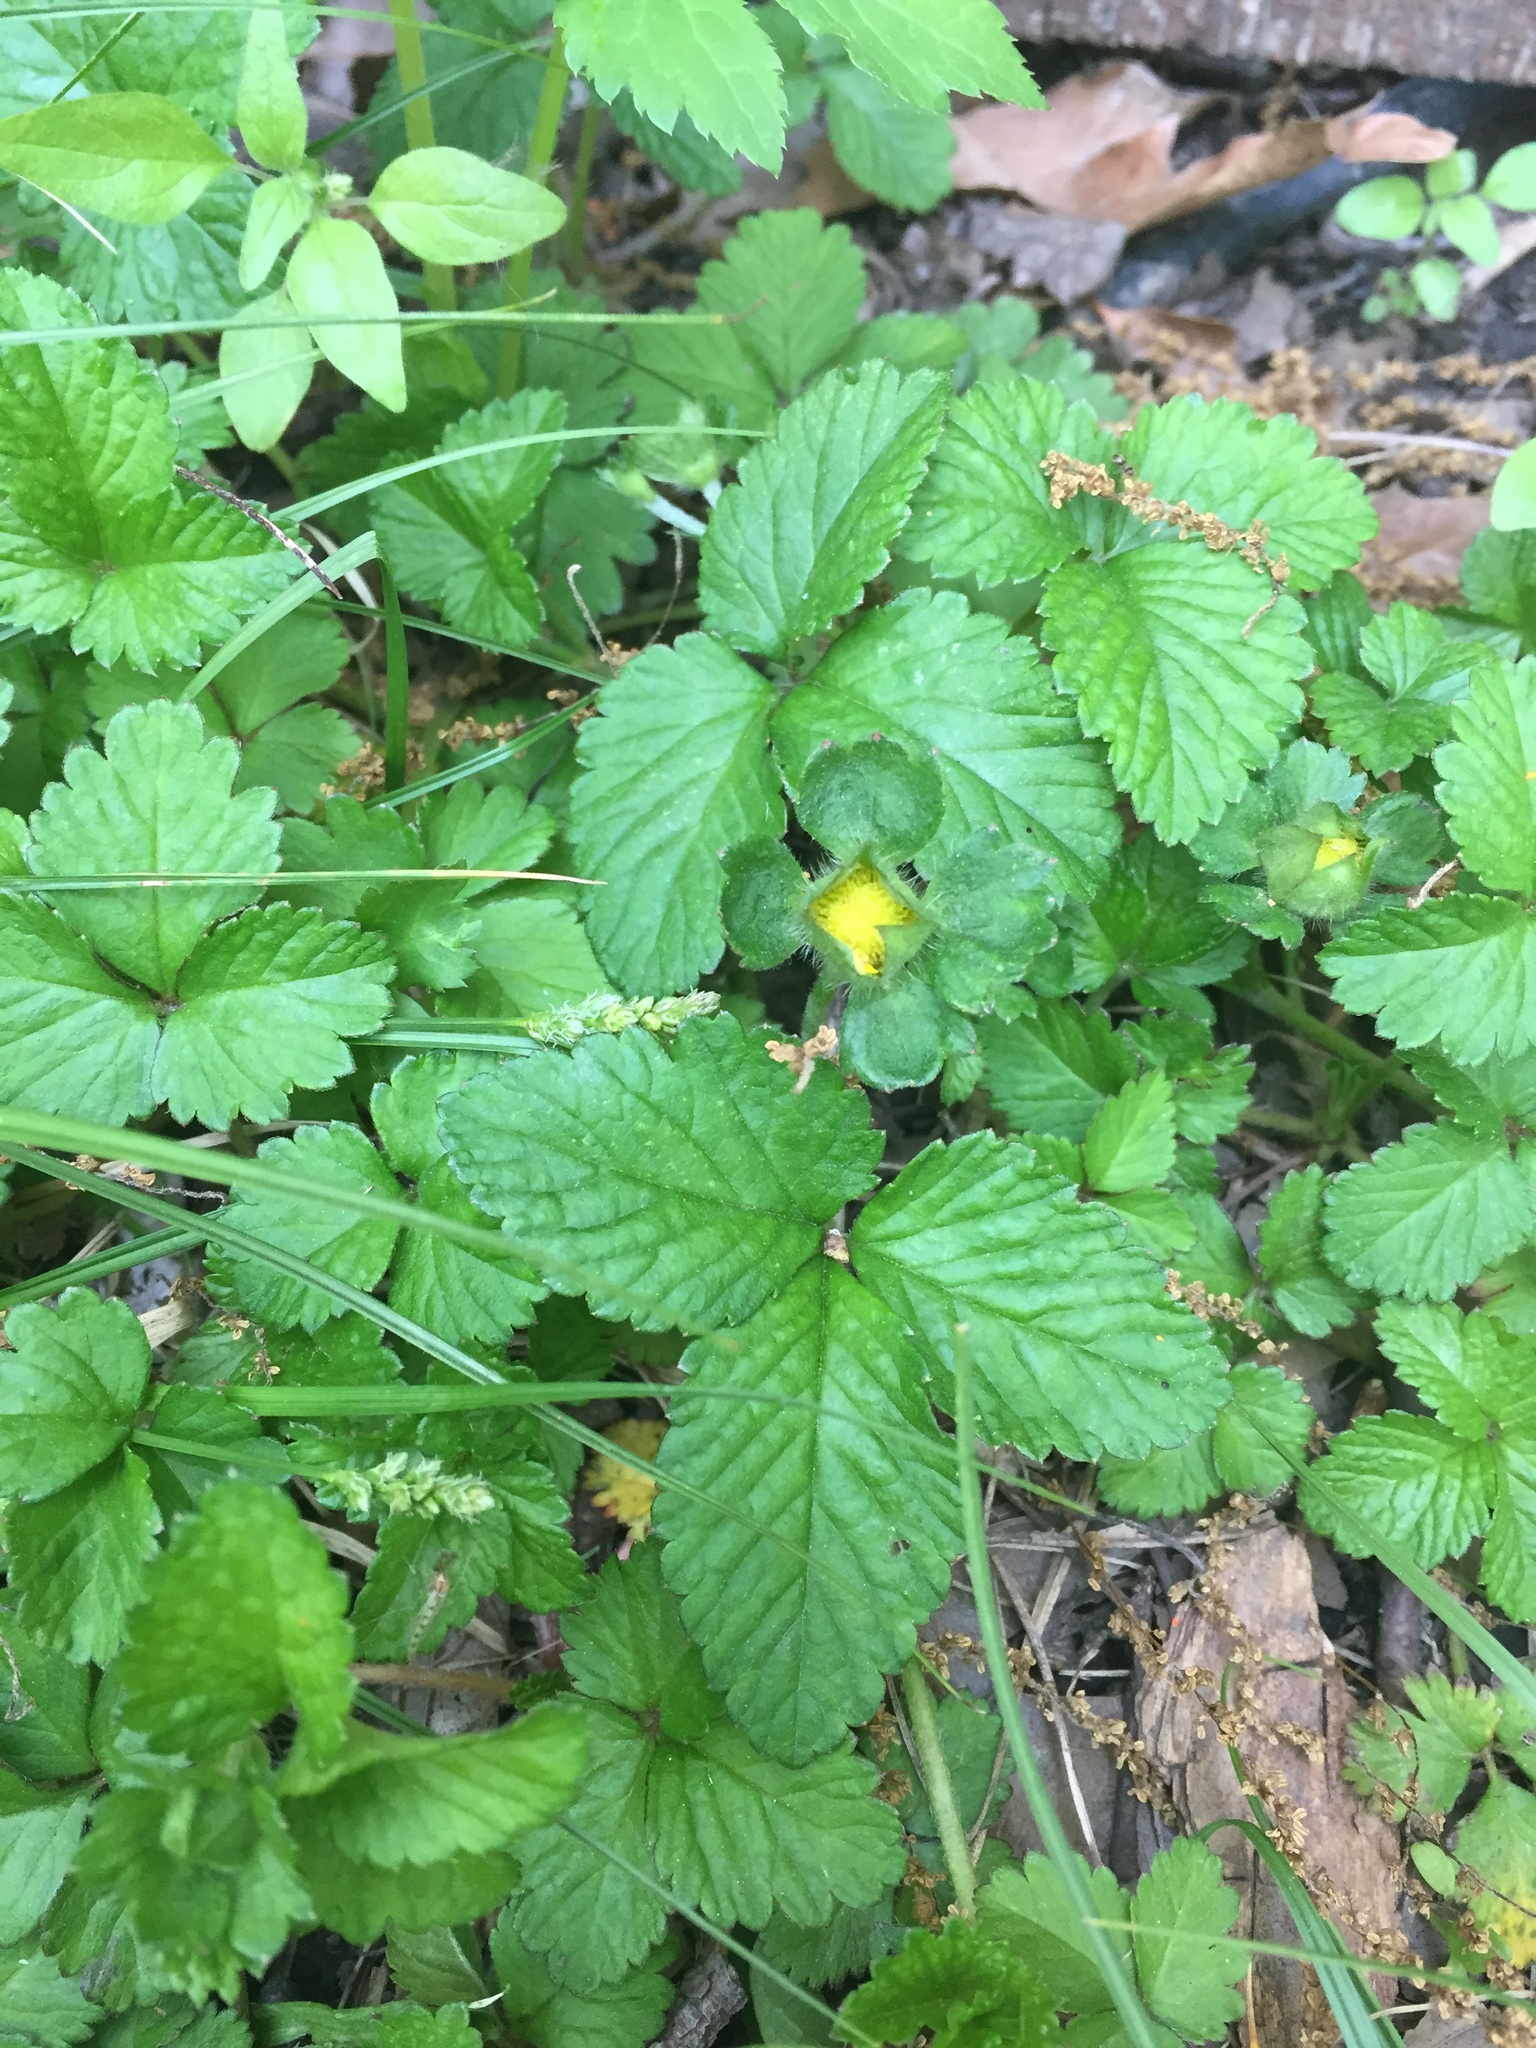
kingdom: Plantae
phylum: Tracheophyta
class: Magnoliopsida
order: Rosales
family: Rosaceae
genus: Potentilla
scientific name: Potentilla indica
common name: Yellow-flowered strawberry
